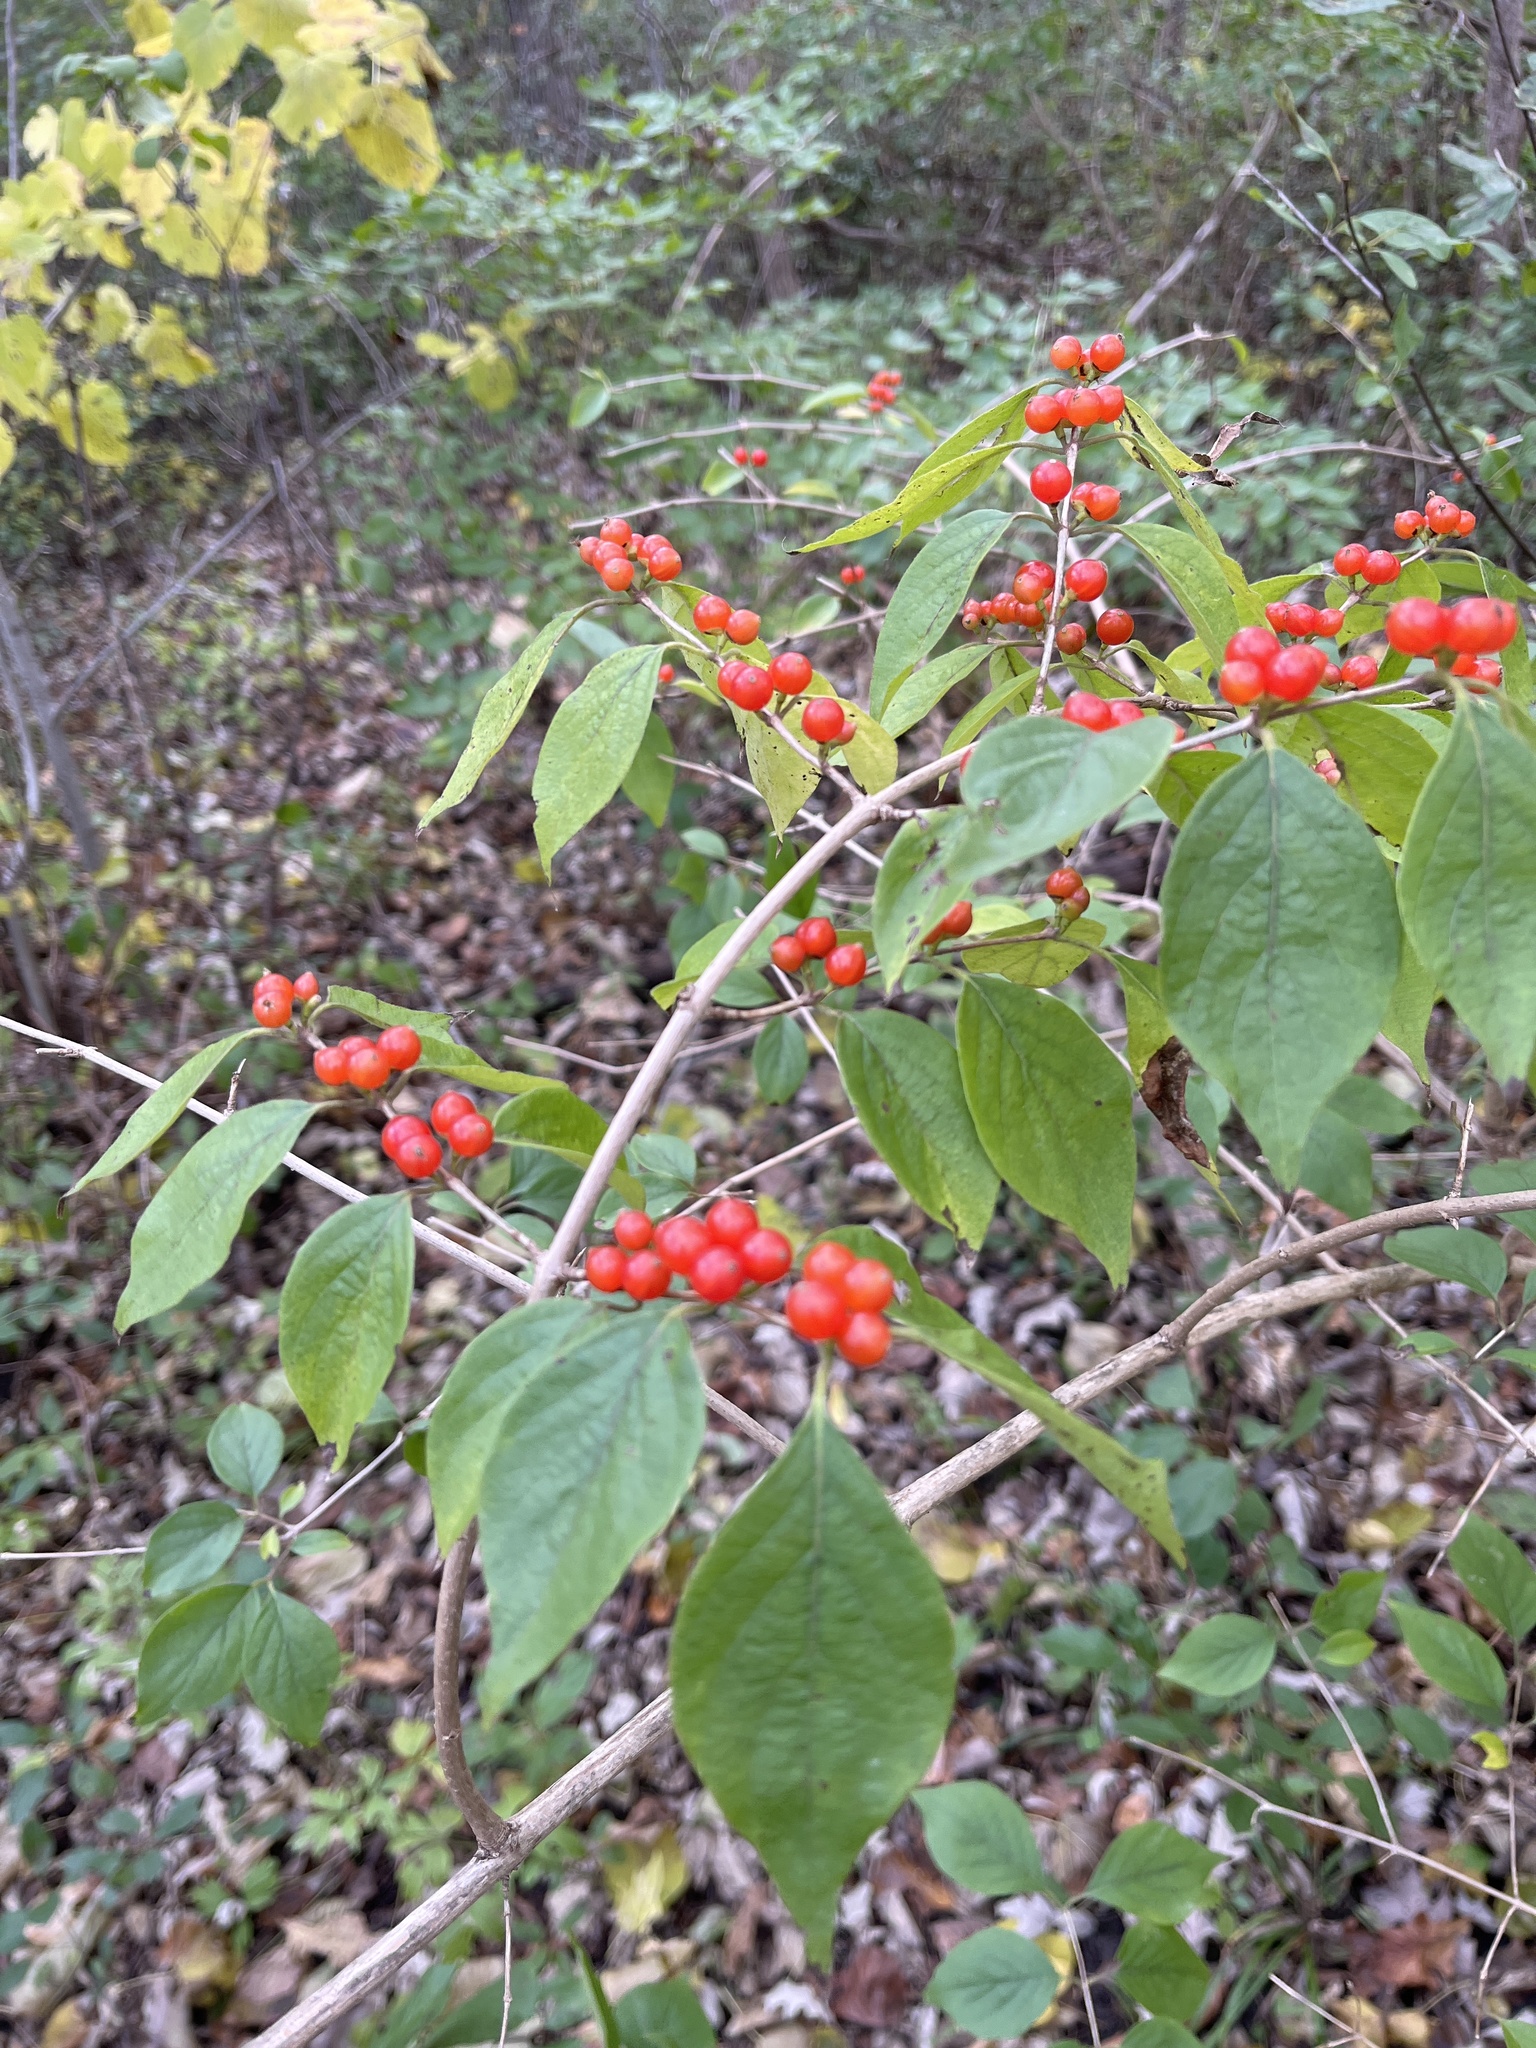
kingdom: Plantae
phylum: Tracheophyta
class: Magnoliopsida
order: Dipsacales
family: Caprifoliaceae
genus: Lonicera
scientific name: Lonicera maackii
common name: Amur honeysuckle
